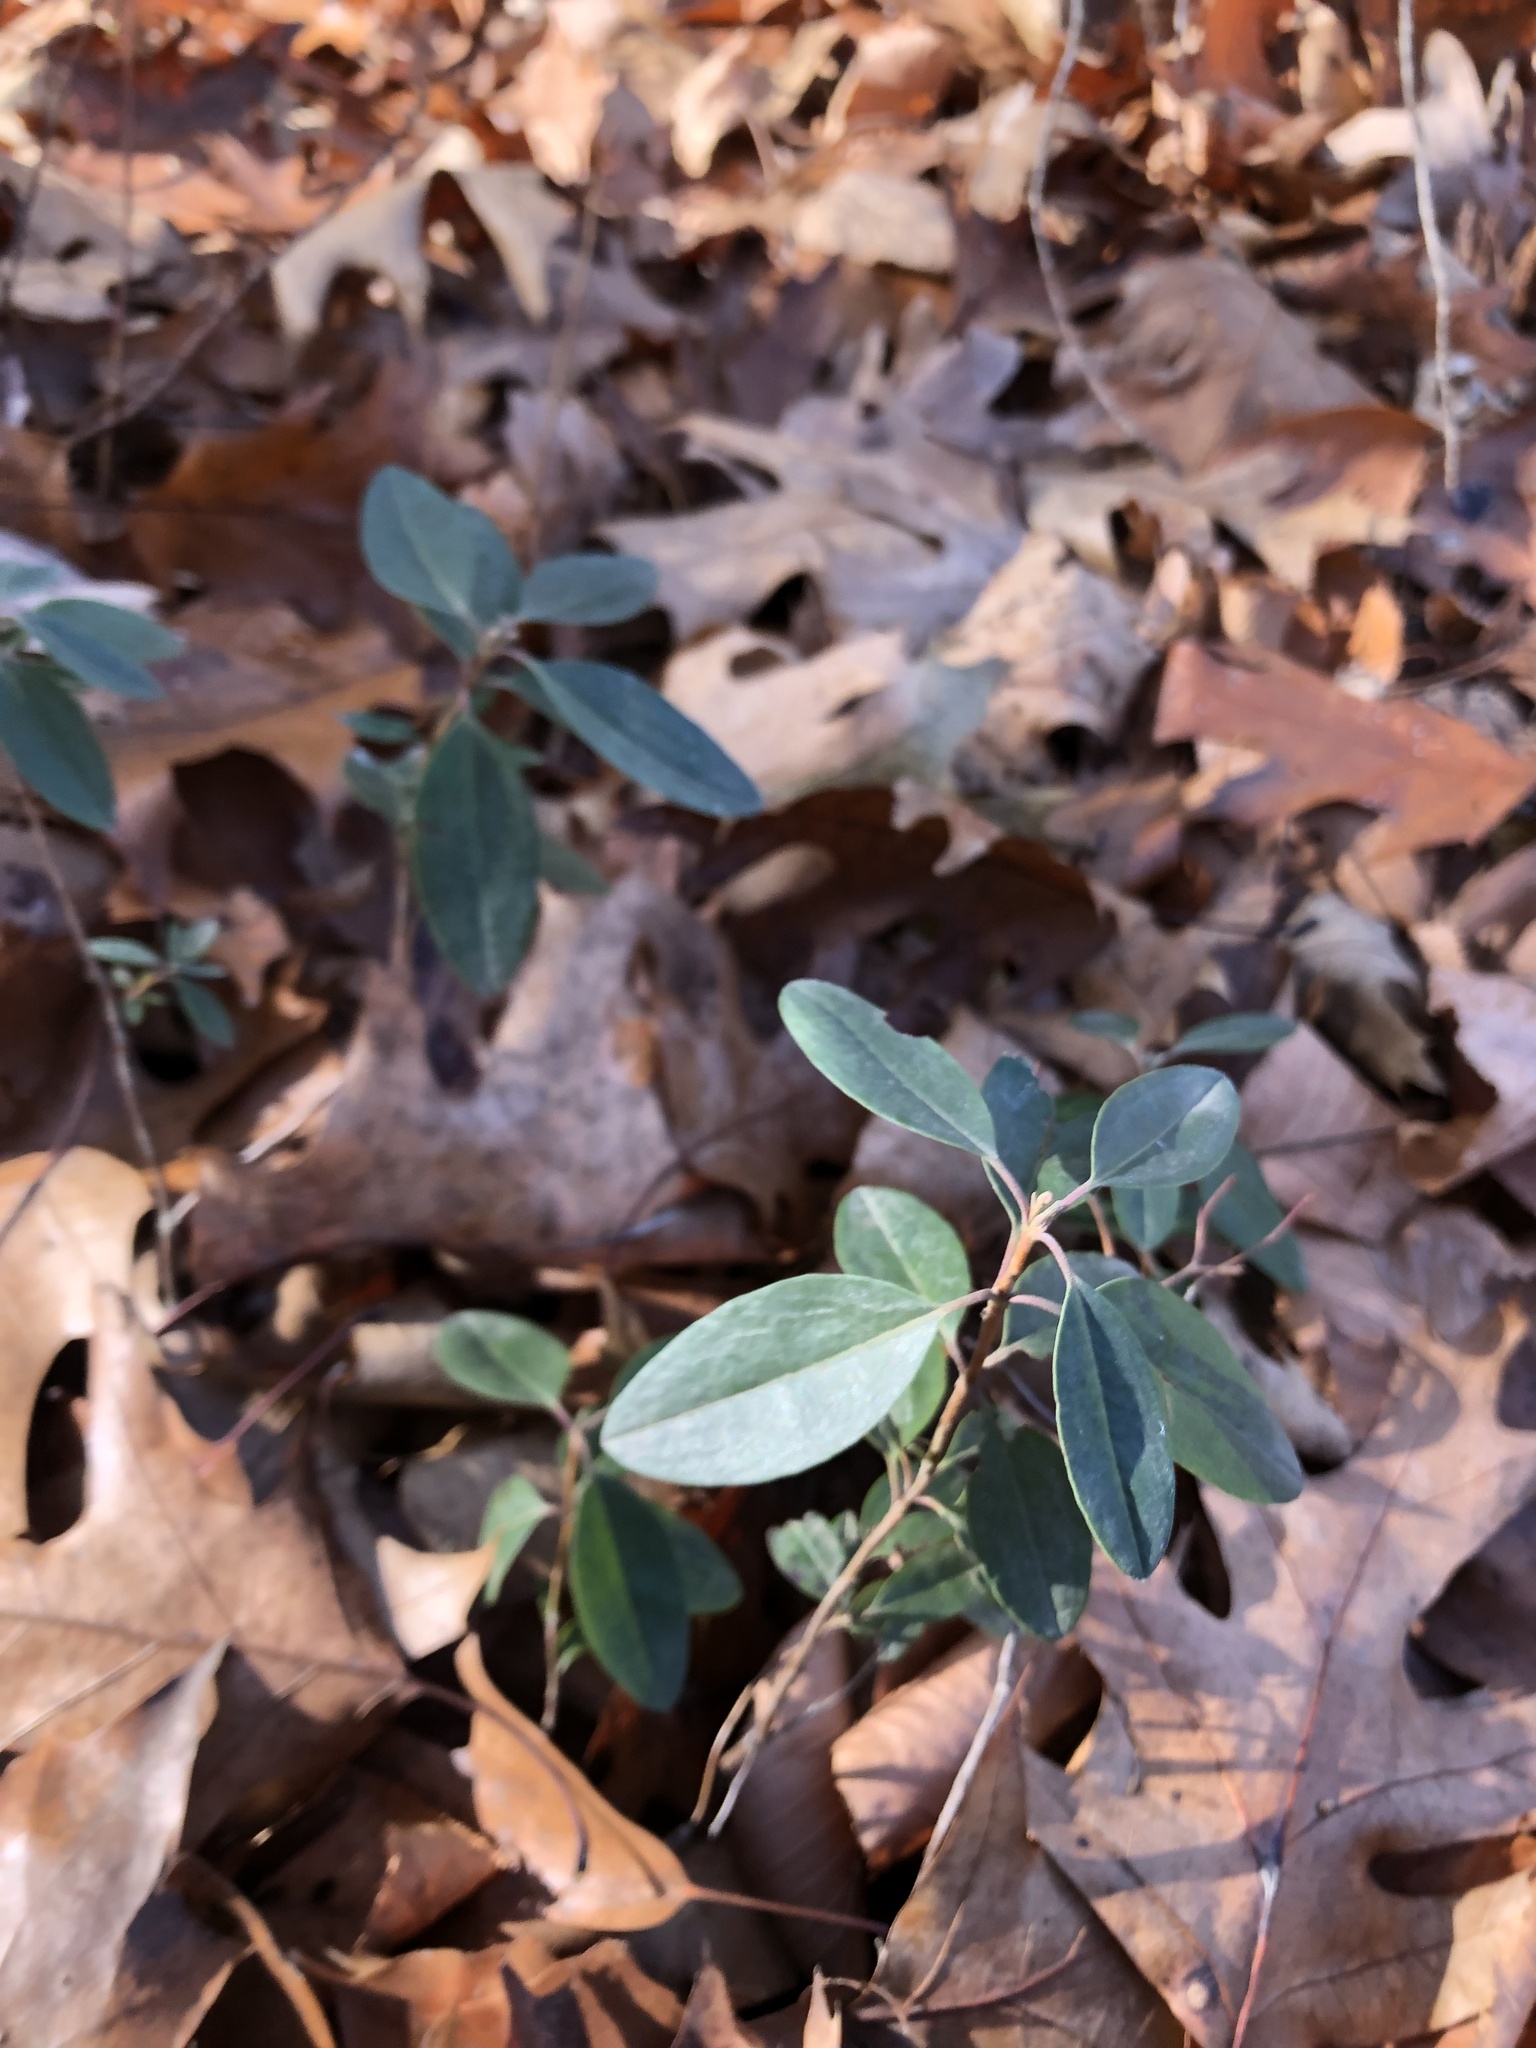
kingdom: Plantae
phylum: Tracheophyta
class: Magnoliopsida
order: Ericales
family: Ericaceae
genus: Kalmia
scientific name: Kalmia angustifolia
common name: Sheep-laurel
